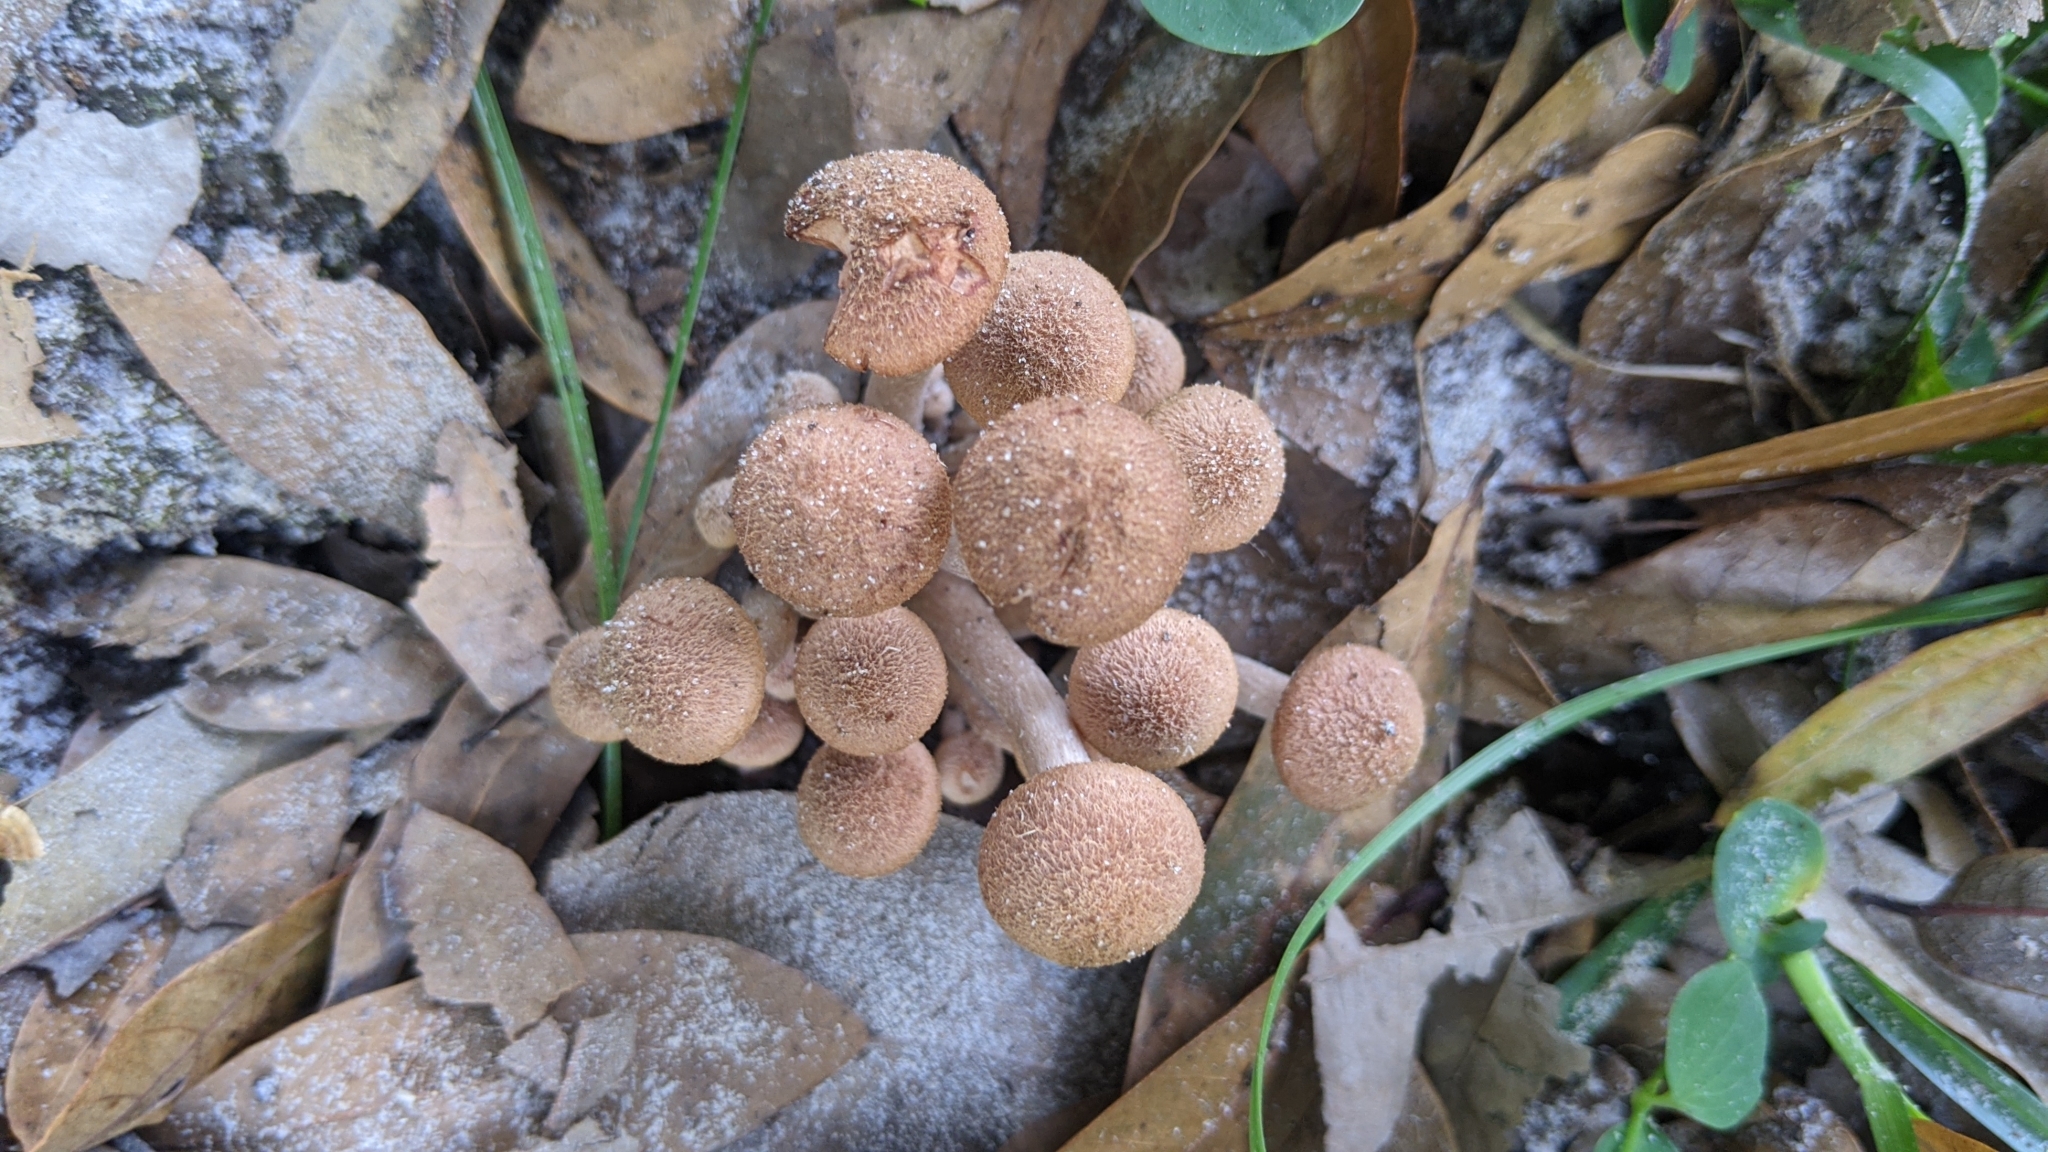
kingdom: Fungi
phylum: Basidiomycota
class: Agaricomycetes
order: Agaricales
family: Physalacriaceae
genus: Desarmillaria
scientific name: Desarmillaria caespitosa
